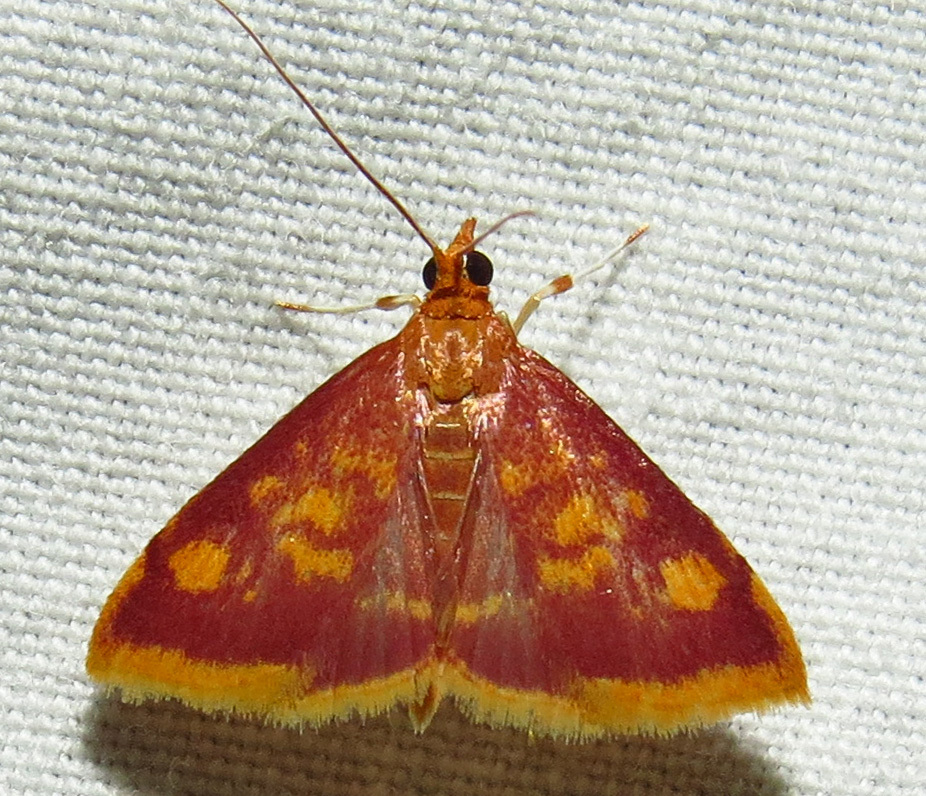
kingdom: Animalia
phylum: Arthropoda
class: Insecta
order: Lepidoptera
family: Crambidae
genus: Pyrausta
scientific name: Pyrausta acrionalis
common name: Mint-loving pyrausta moth
